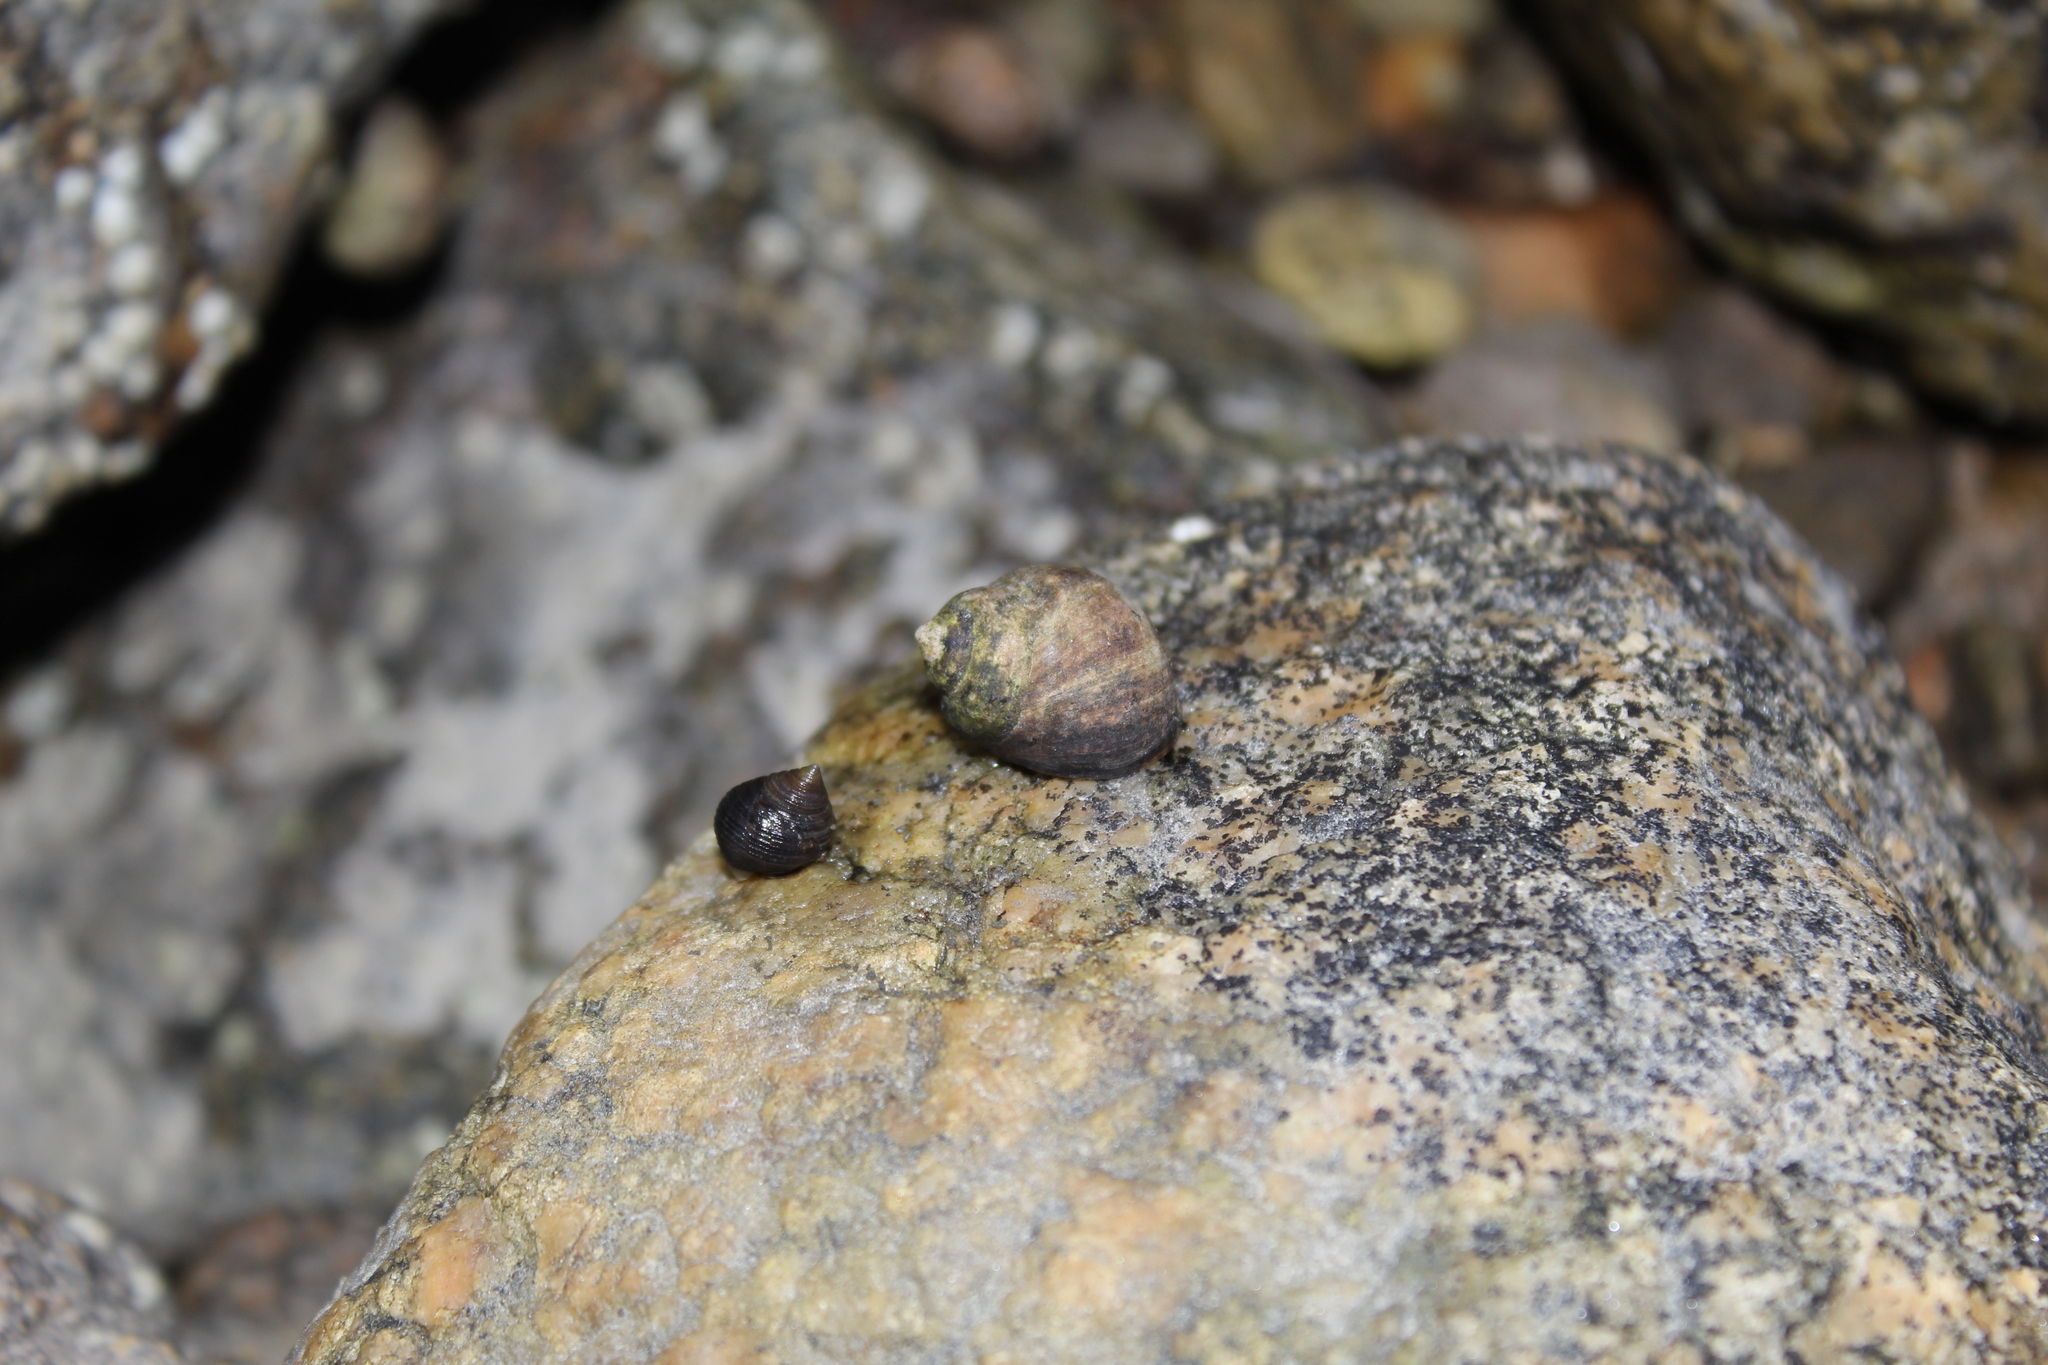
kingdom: Animalia
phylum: Mollusca
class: Gastropoda
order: Littorinimorpha
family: Littorinidae
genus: Littorina
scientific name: Littorina littorea
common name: Common periwinkle
